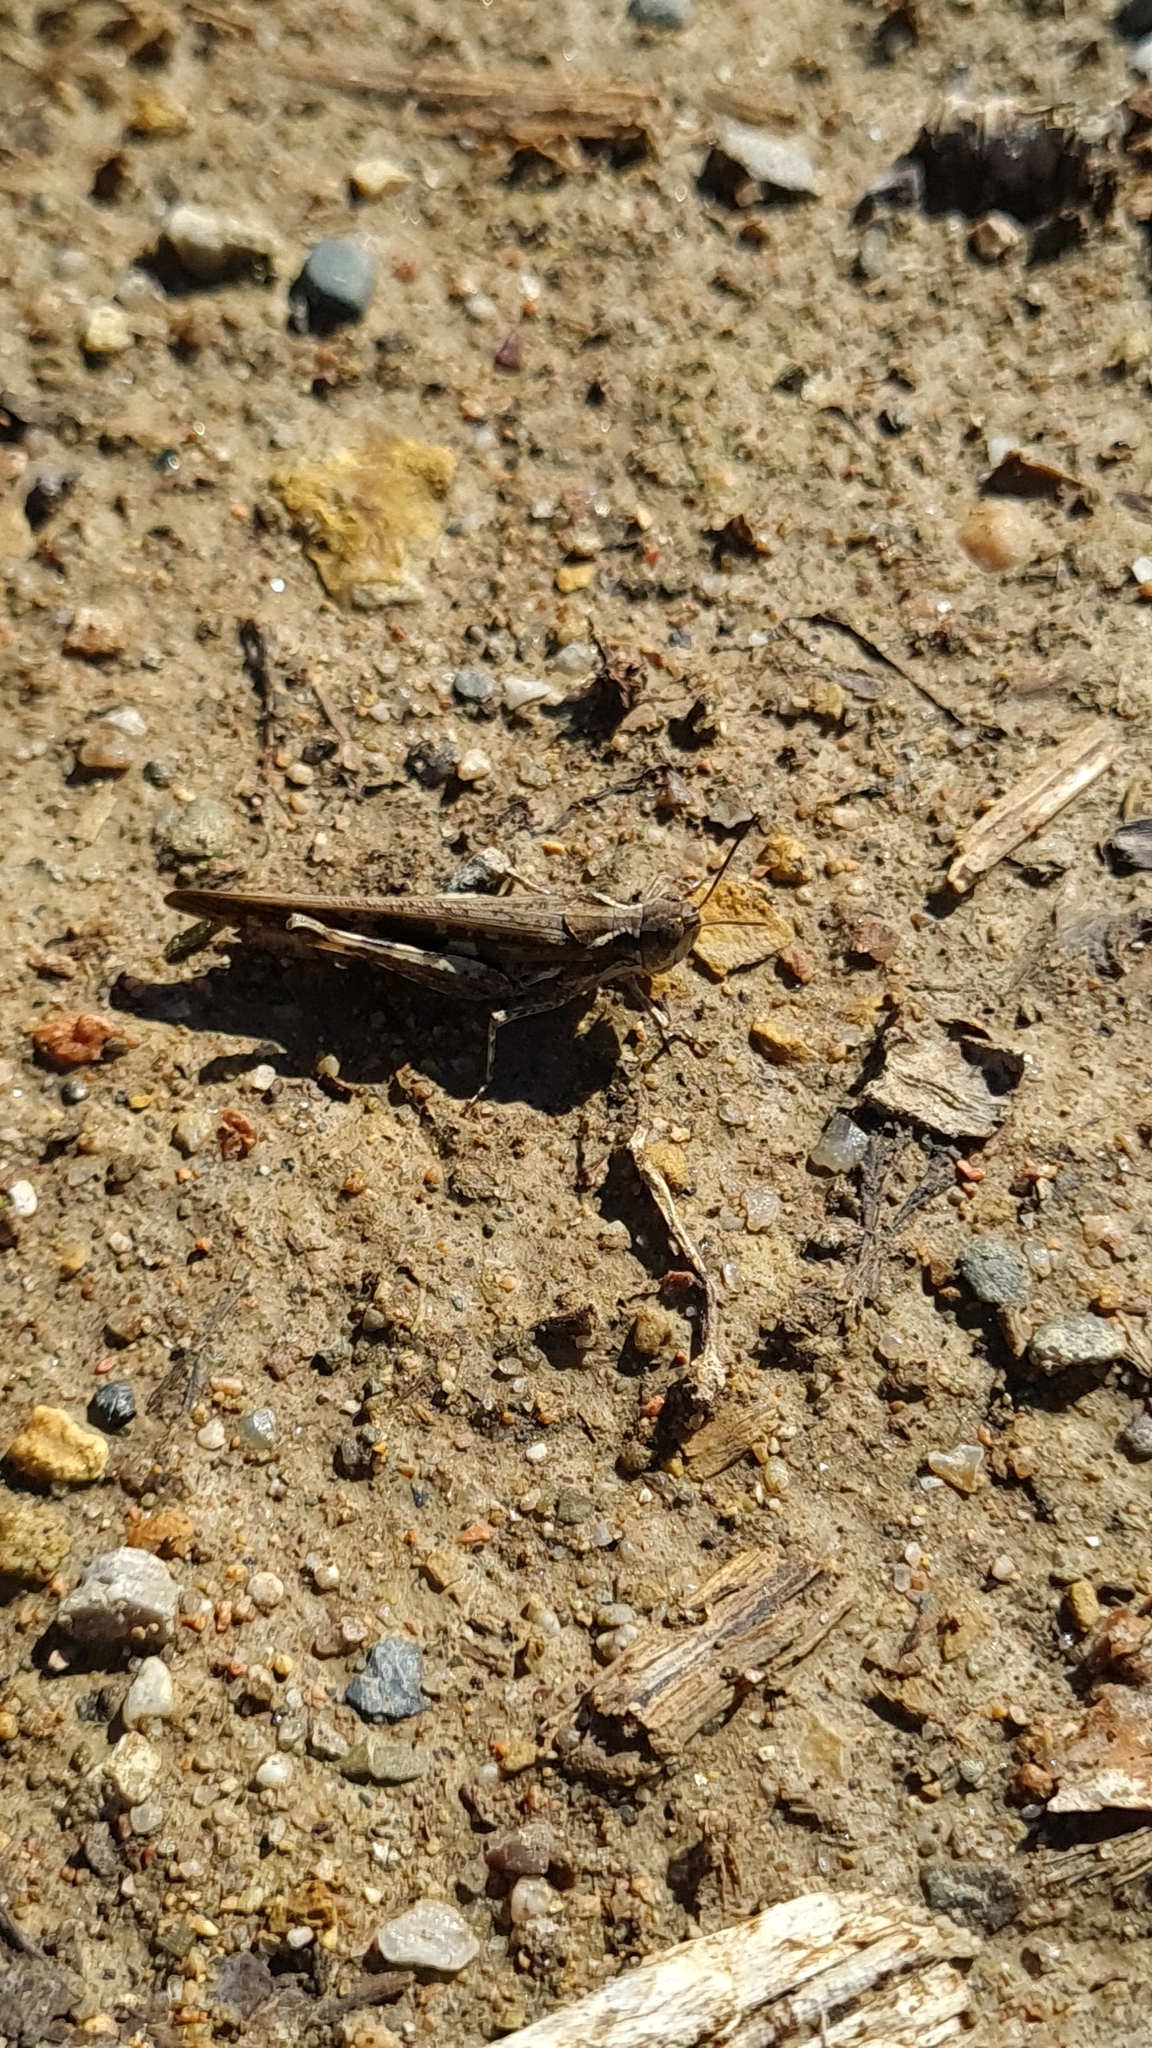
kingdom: Animalia
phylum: Arthropoda
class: Insecta
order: Orthoptera
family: Acrididae
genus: Aiolopus
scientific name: Aiolopus puissanti
